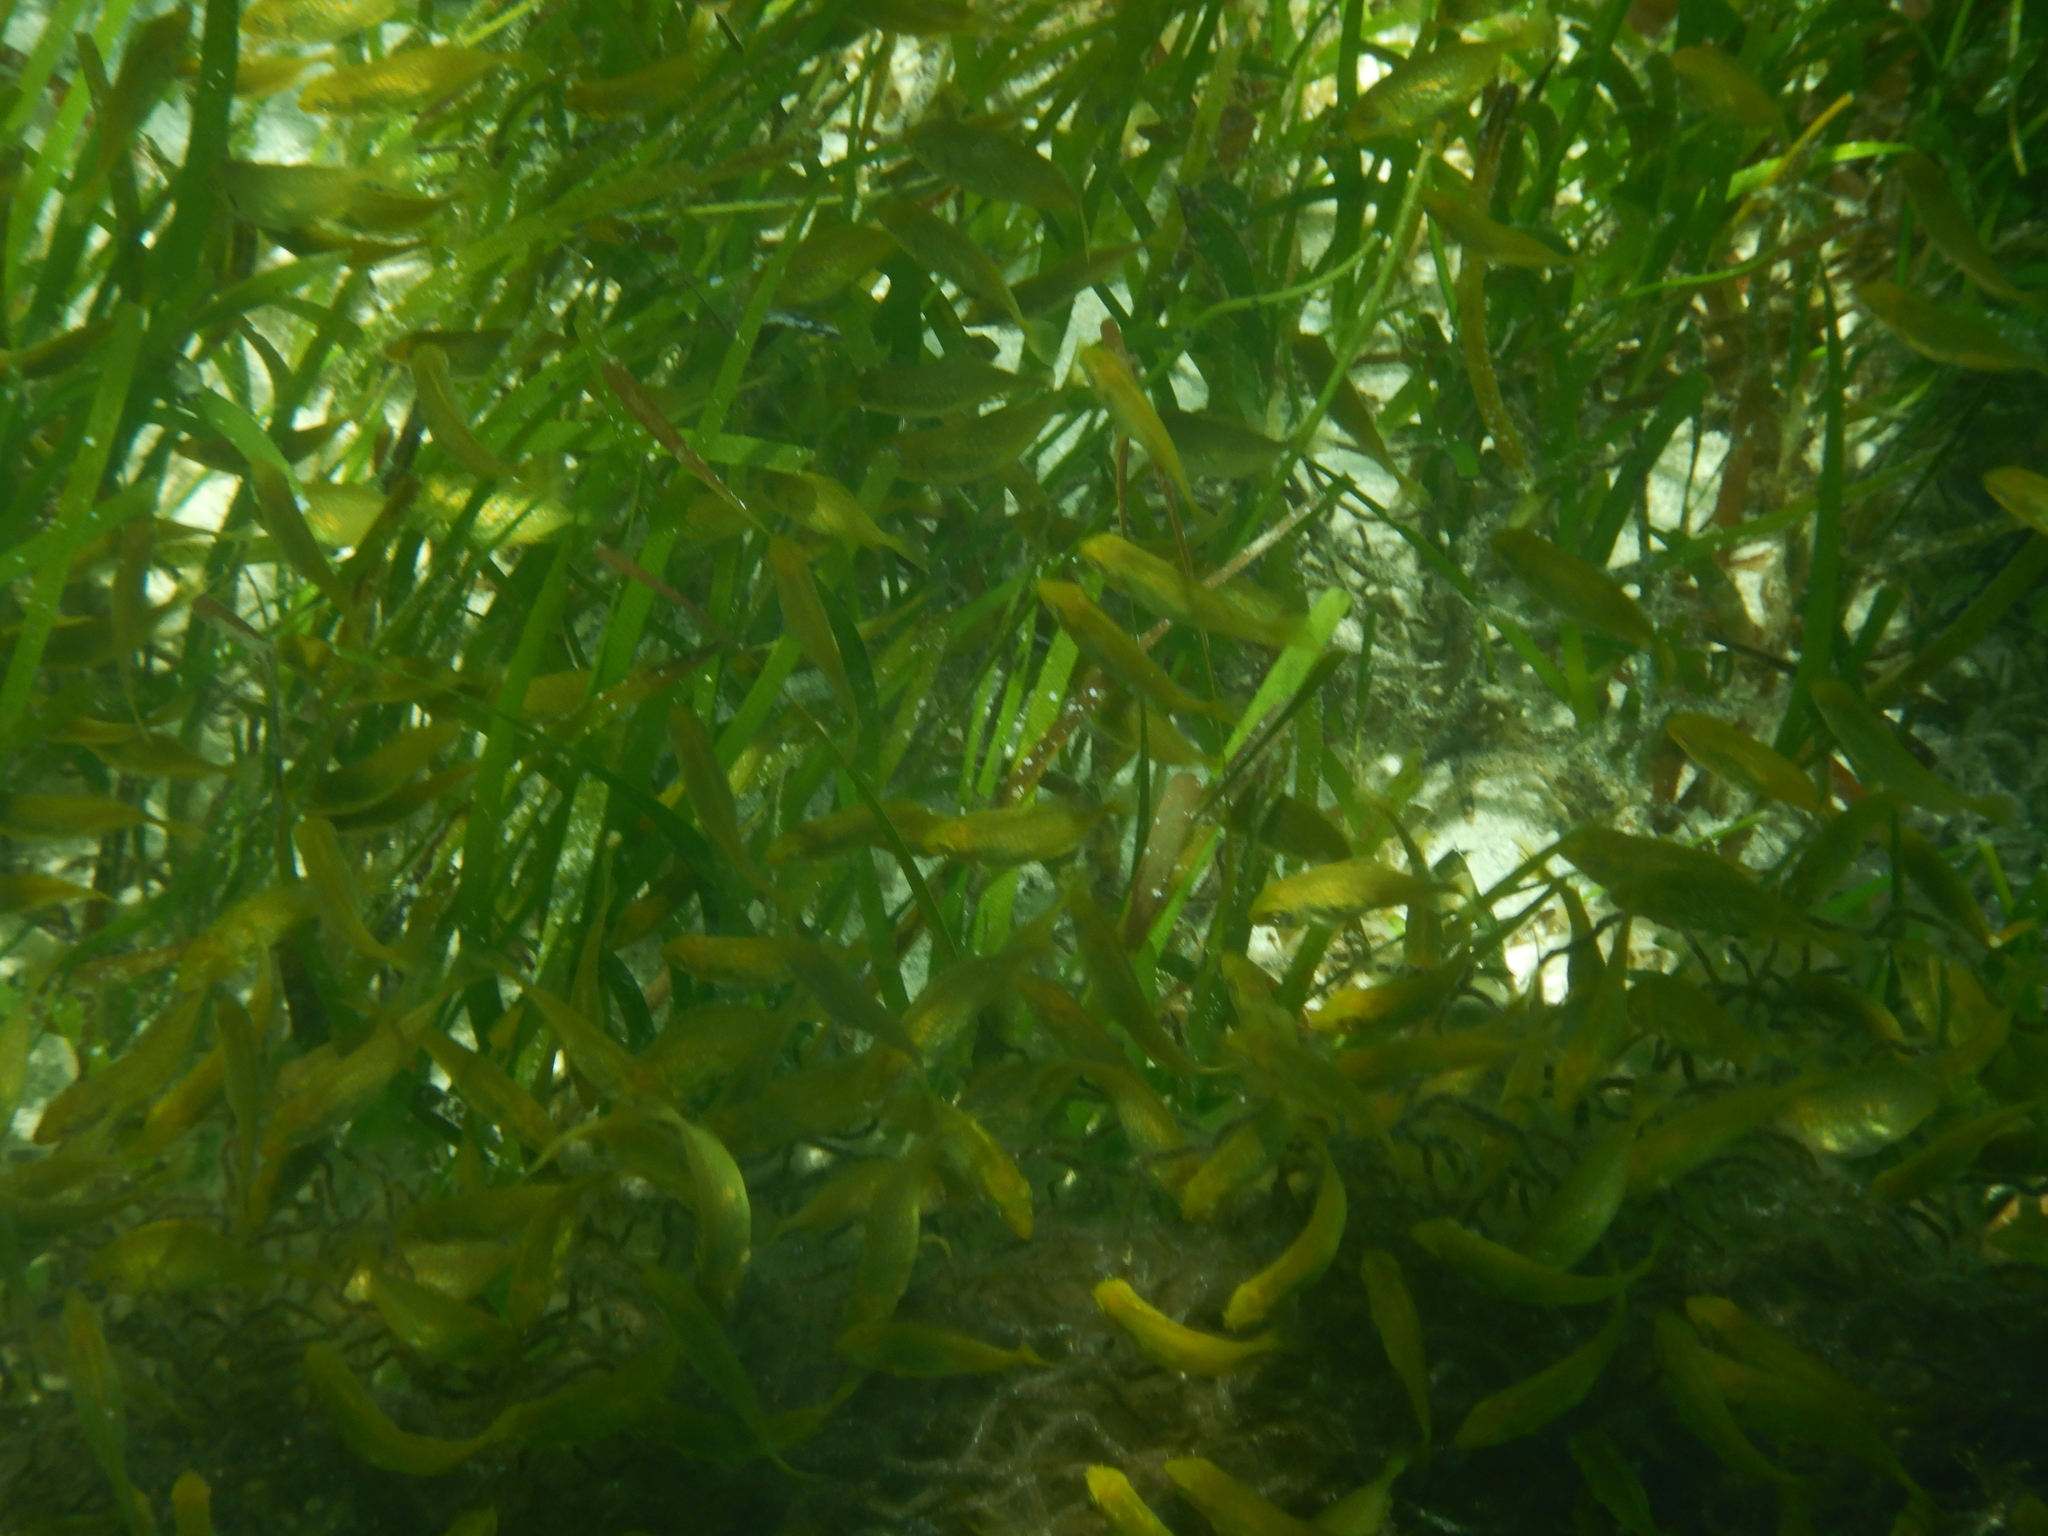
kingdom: Animalia
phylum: Chordata
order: Perciformes
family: Mullidae
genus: Parupeneus
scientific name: Parupeneus ciliatus
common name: White-lined goatfish
